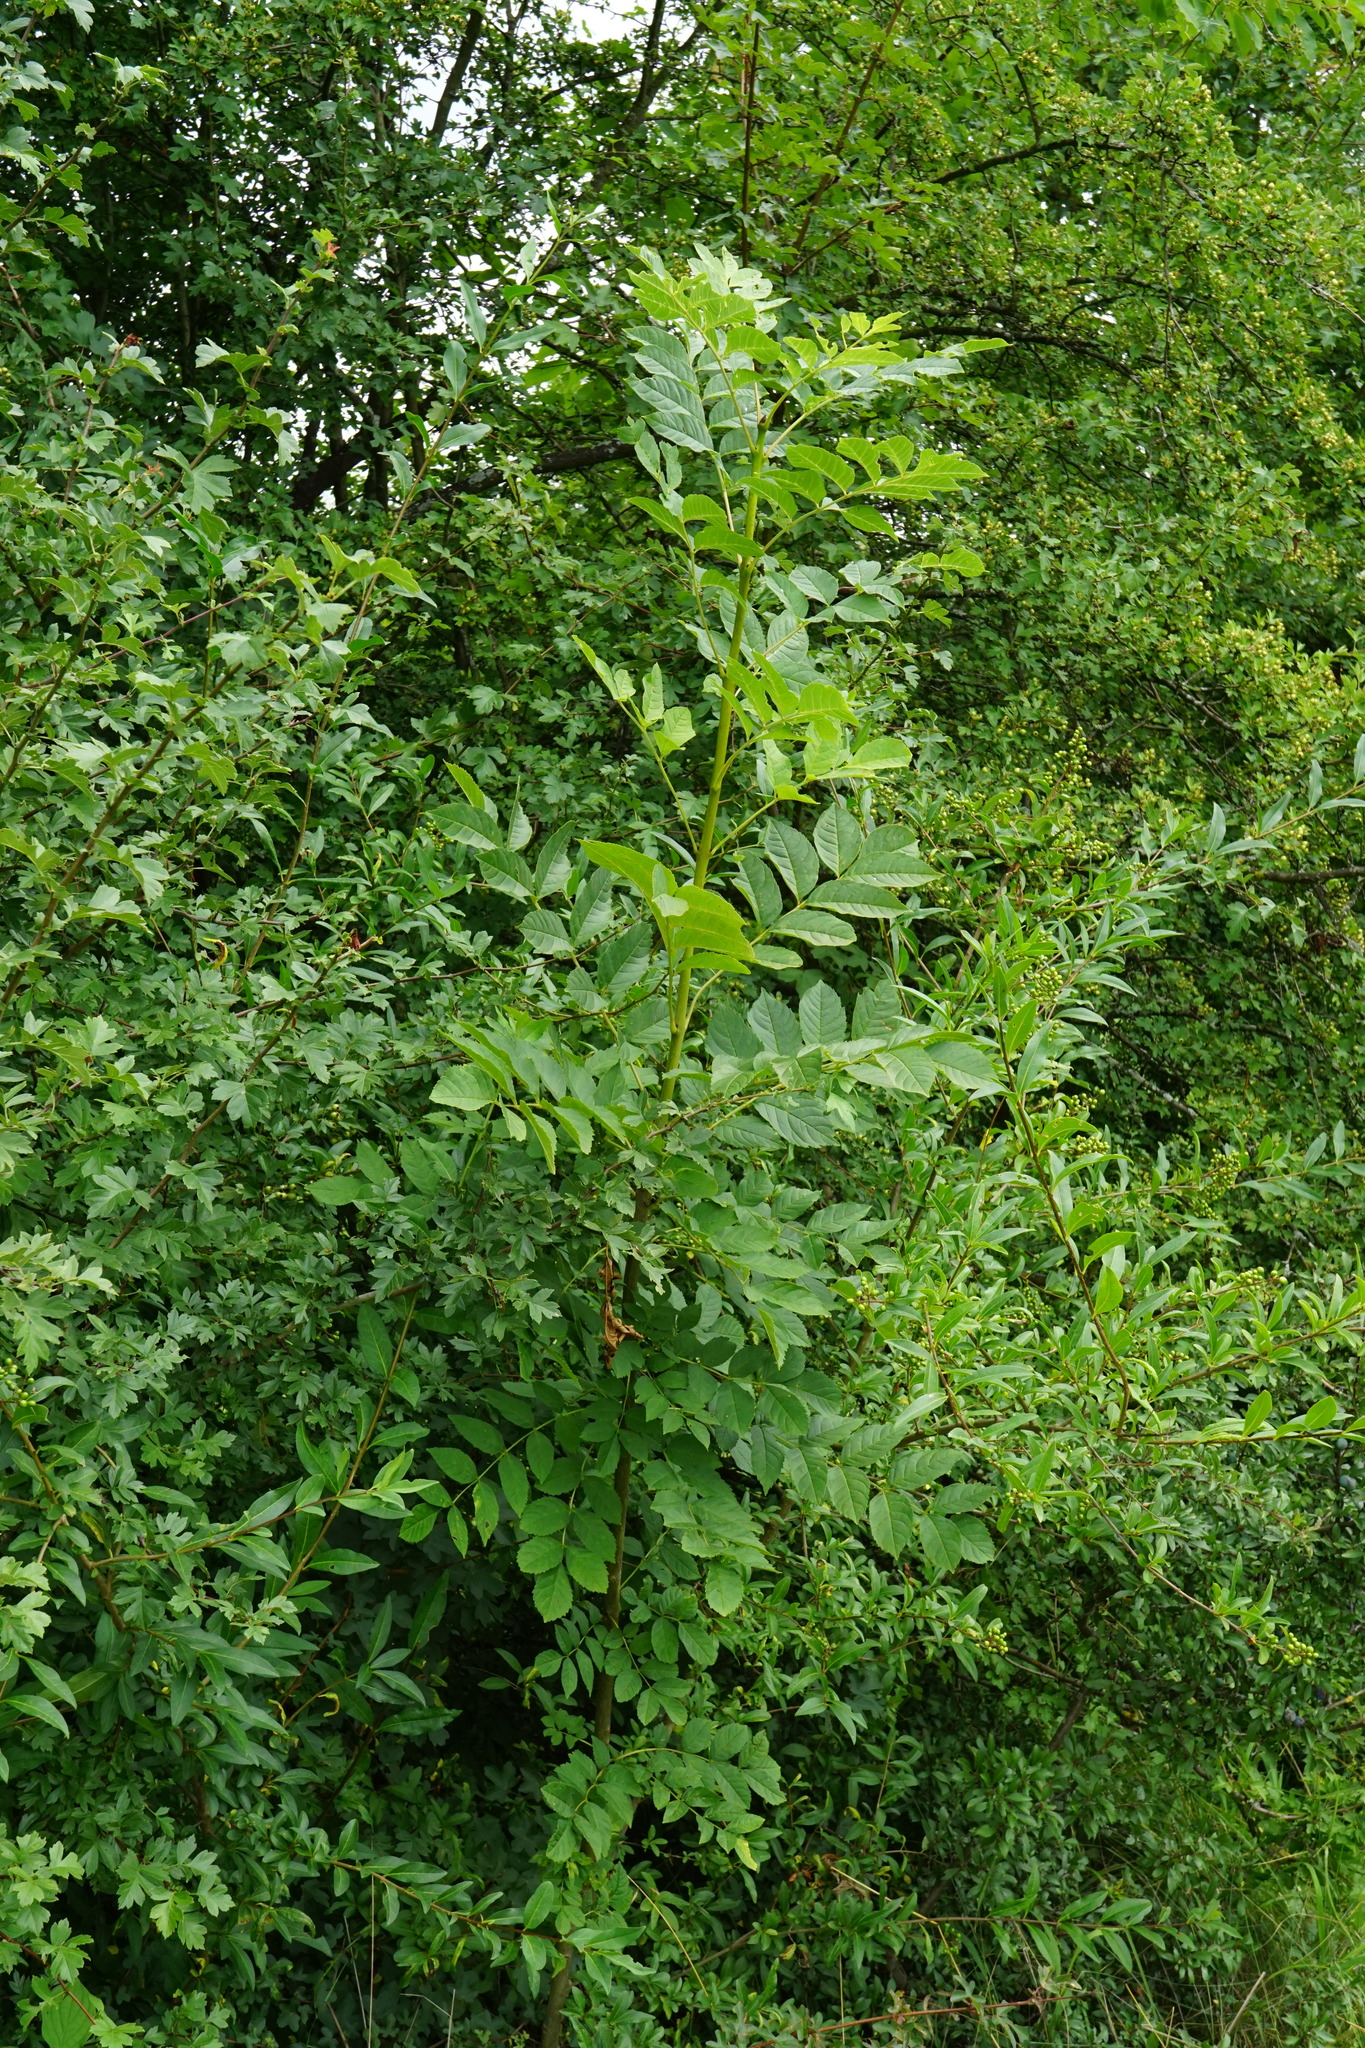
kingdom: Plantae
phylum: Tracheophyta
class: Magnoliopsida
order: Lamiales
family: Oleaceae
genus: Fraxinus
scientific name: Fraxinus excelsior
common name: European ash
